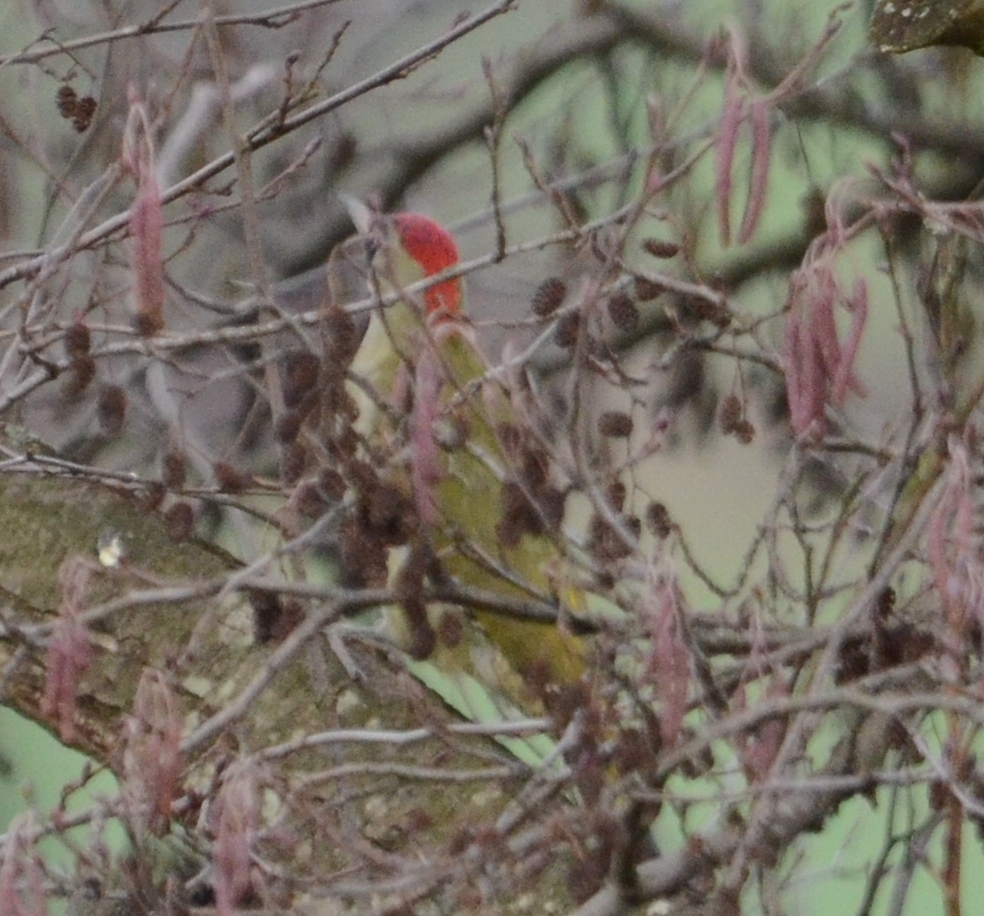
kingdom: Animalia
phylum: Chordata
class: Aves
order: Piciformes
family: Picidae
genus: Picus
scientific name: Picus viridis
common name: European green woodpecker
